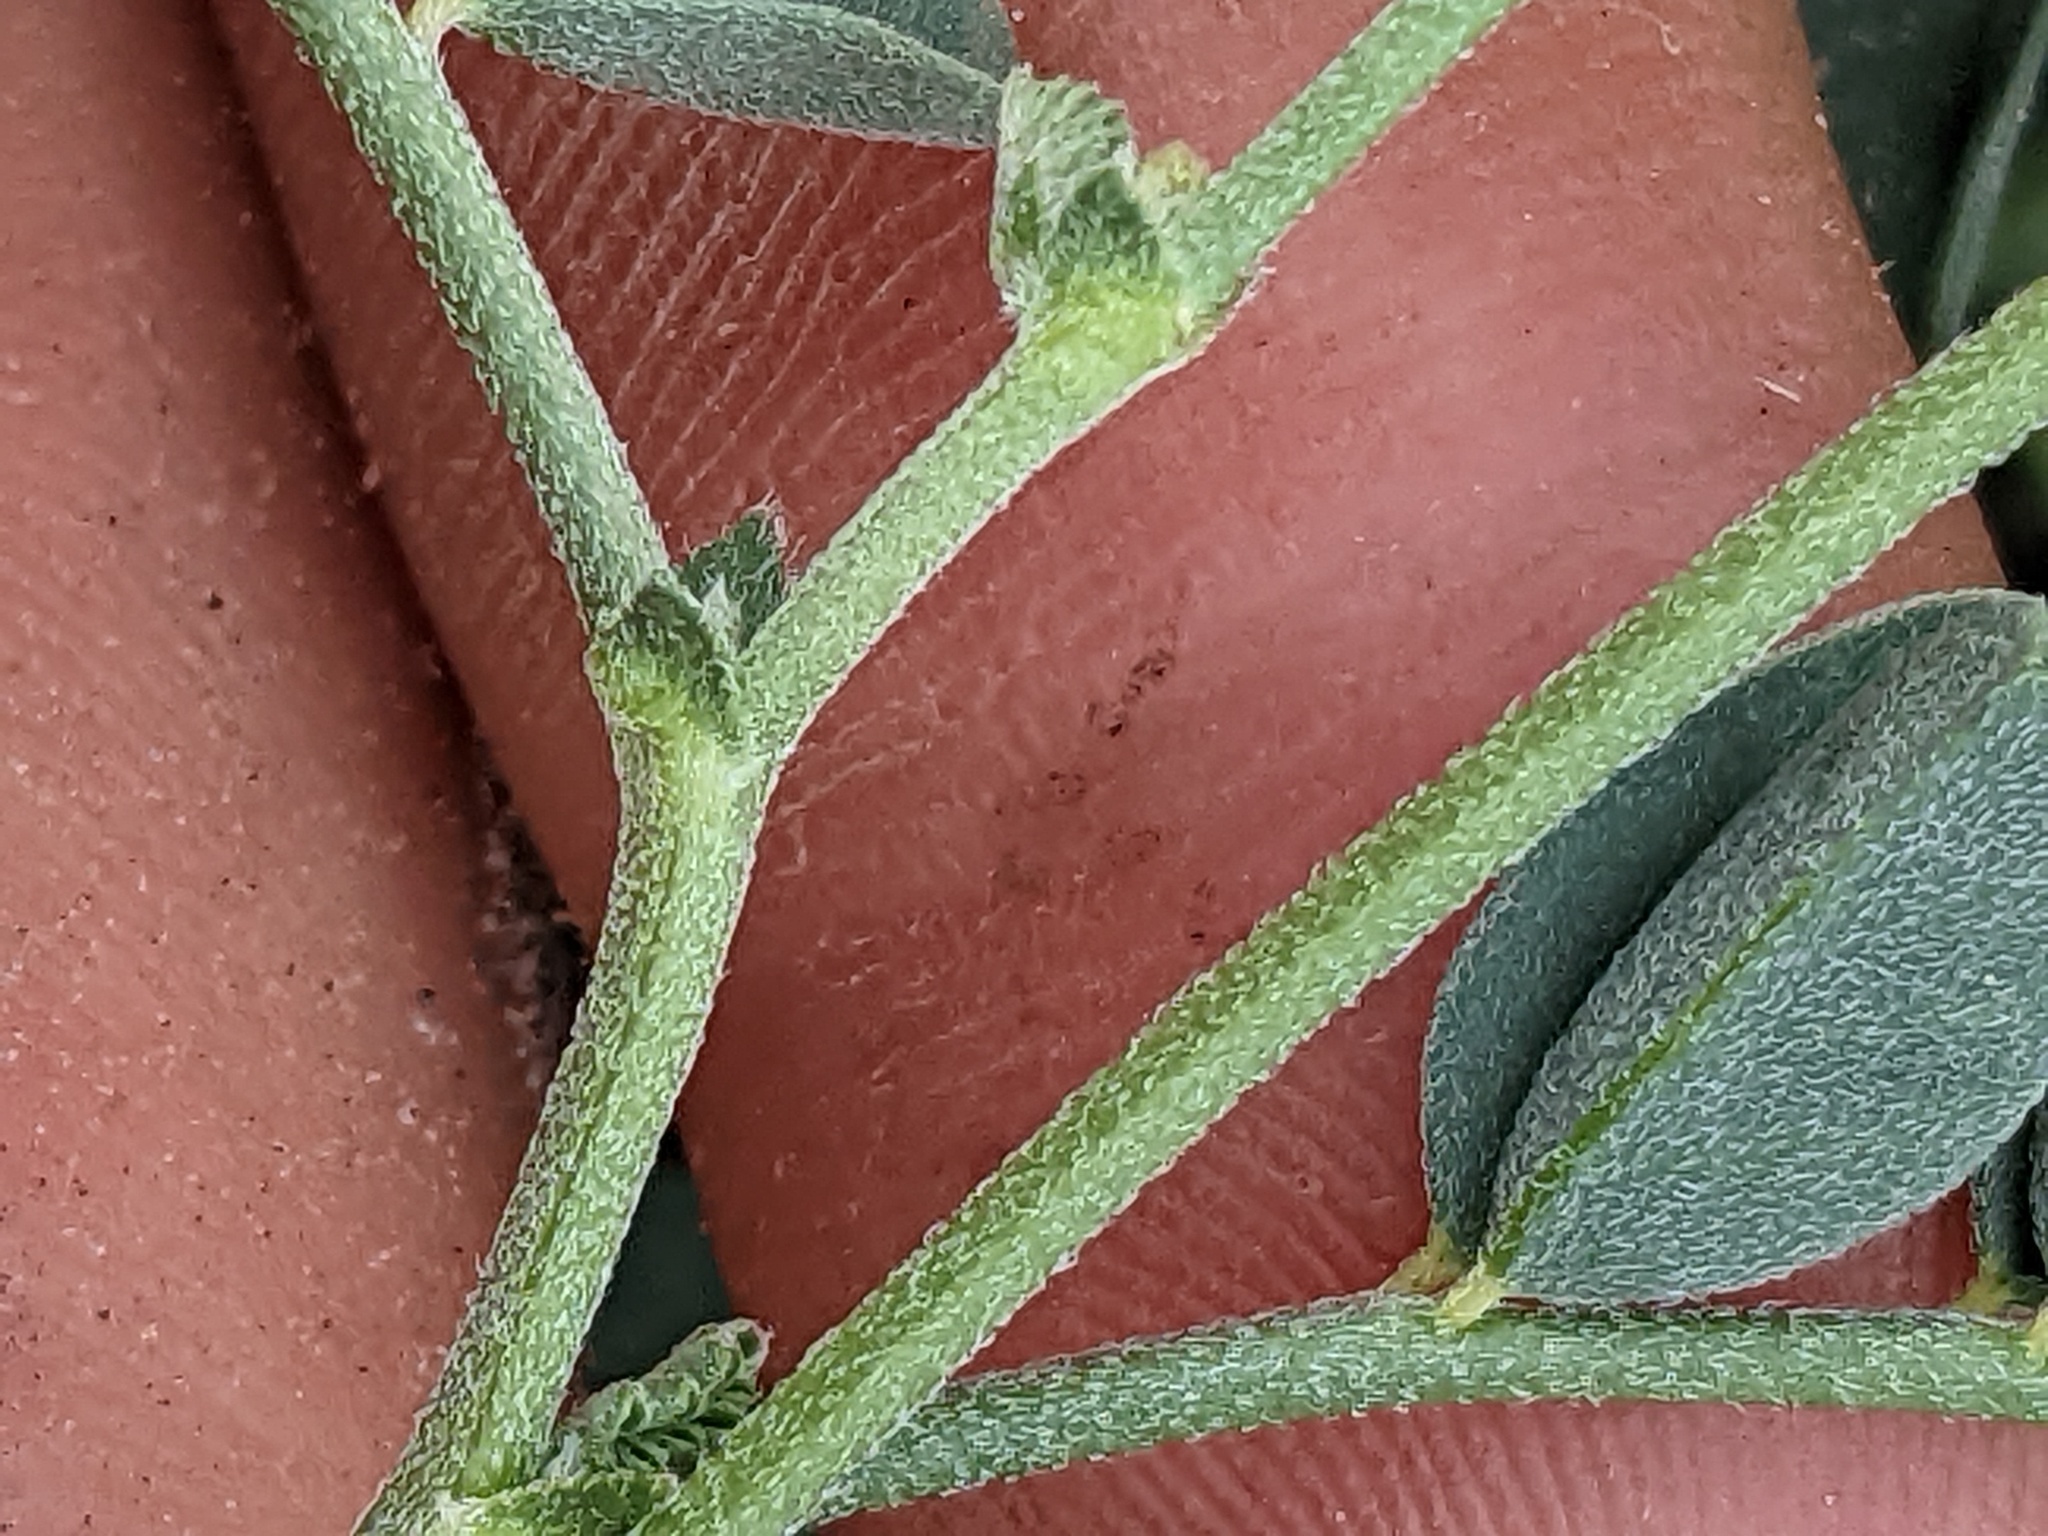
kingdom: Plantae
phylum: Tracheophyta
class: Magnoliopsida
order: Fabales
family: Fabaceae
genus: Astragalus
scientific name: Astragalus curvicarpus
